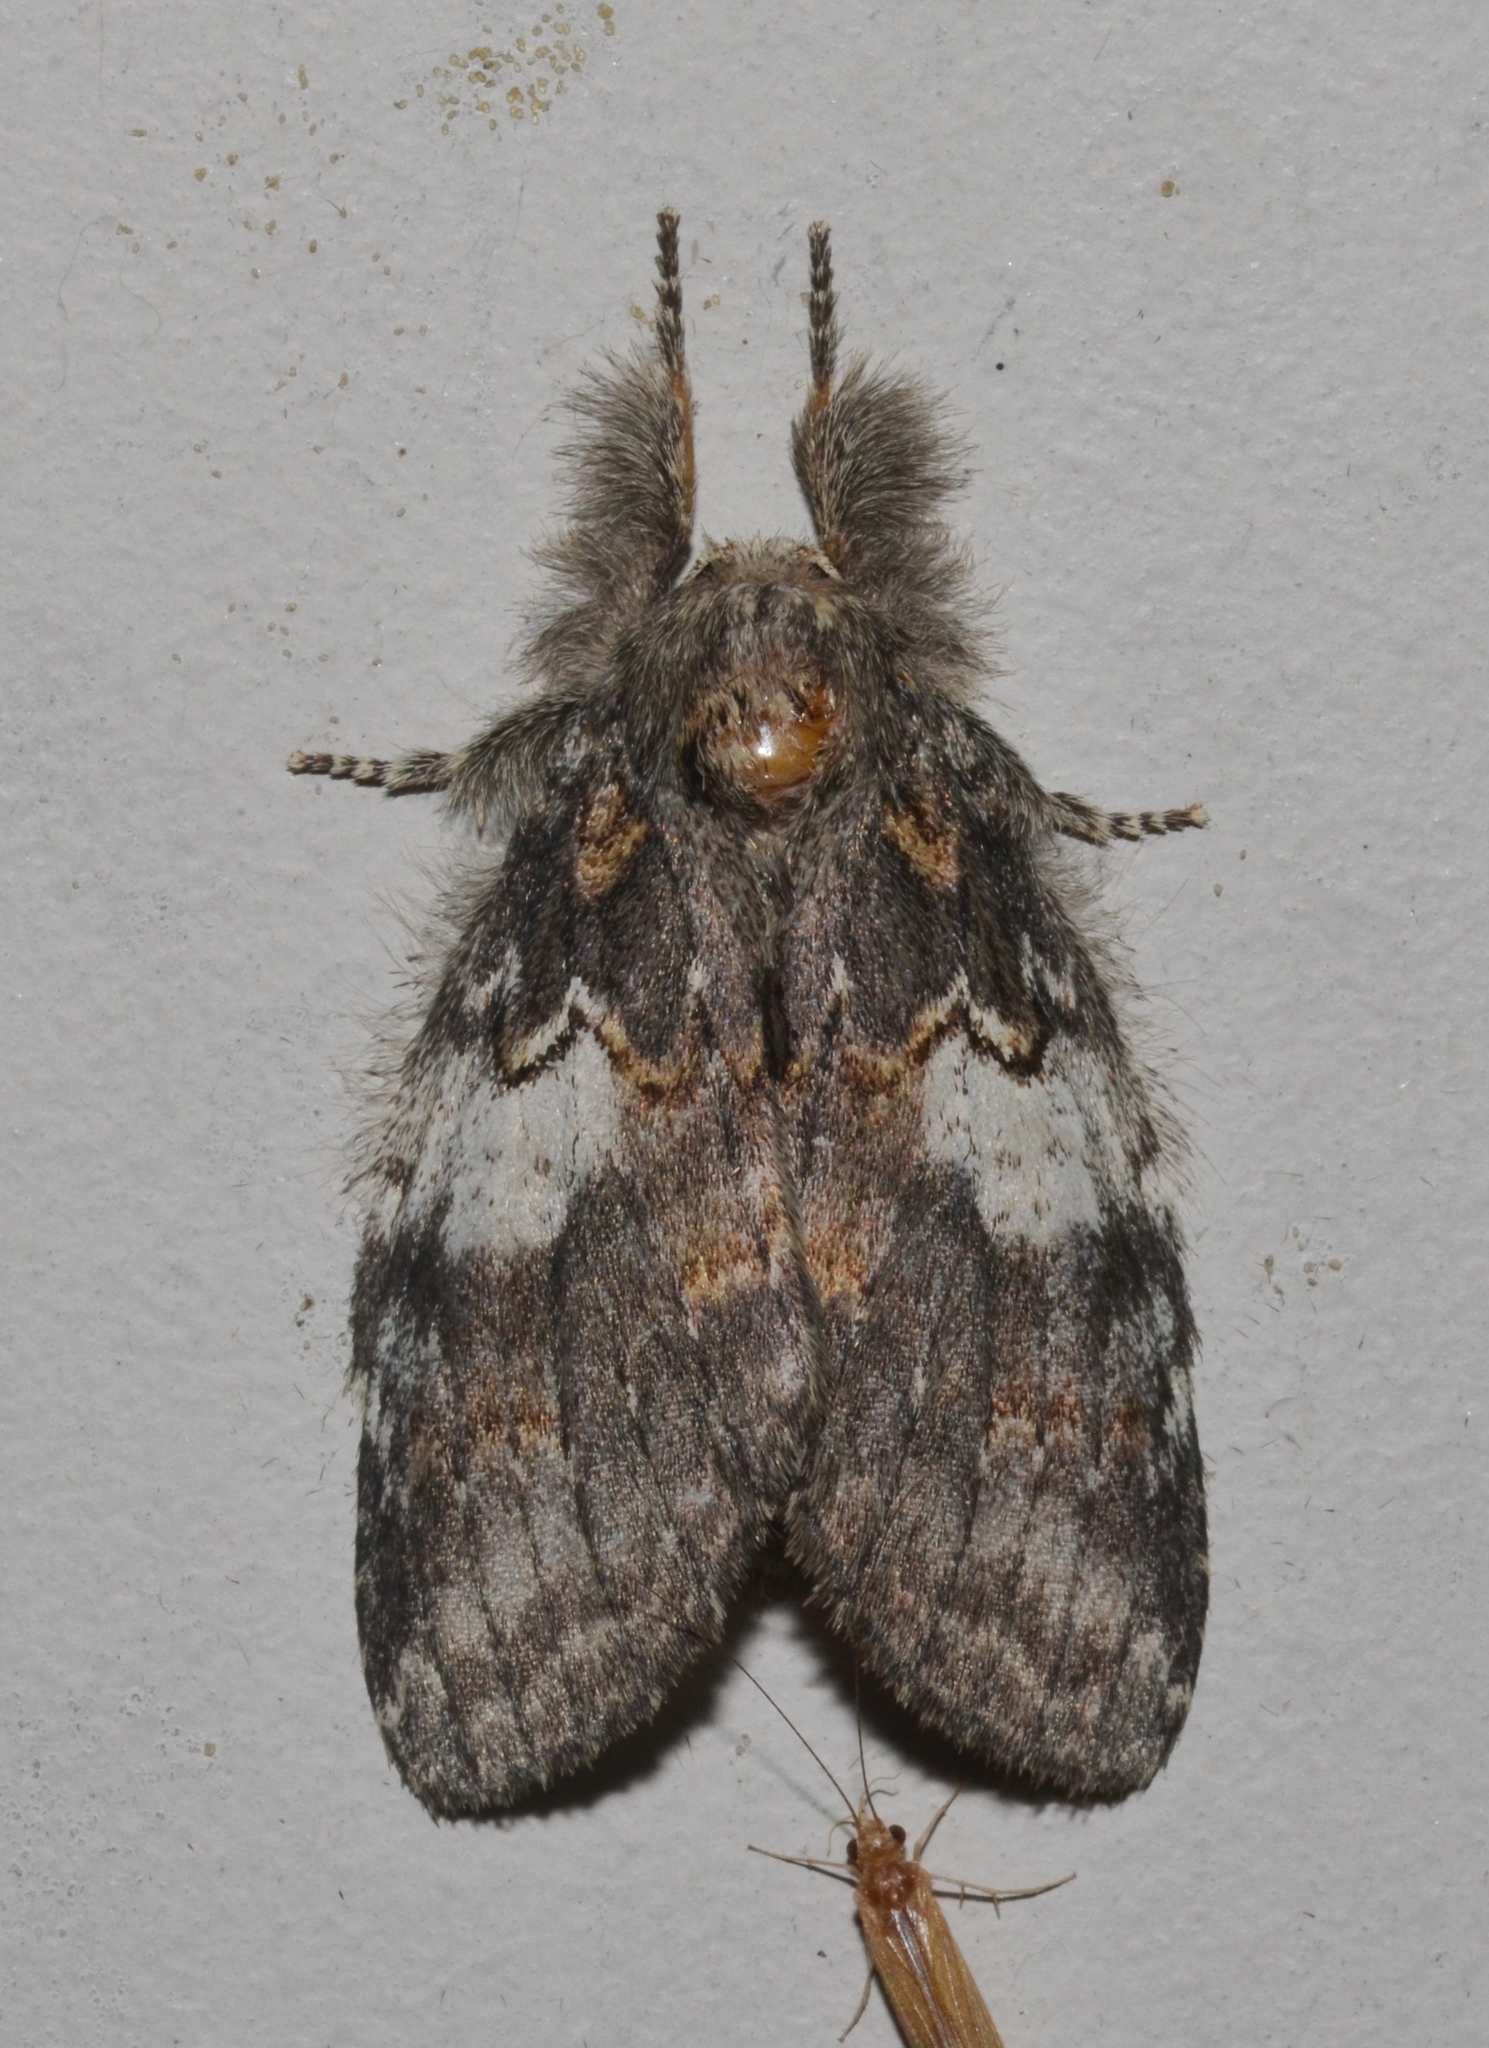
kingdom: Animalia
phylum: Arthropoda
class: Insecta
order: Lepidoptera
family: Notodontidae
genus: Peridea
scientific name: Peridea angulosa
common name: Angulose prominent
